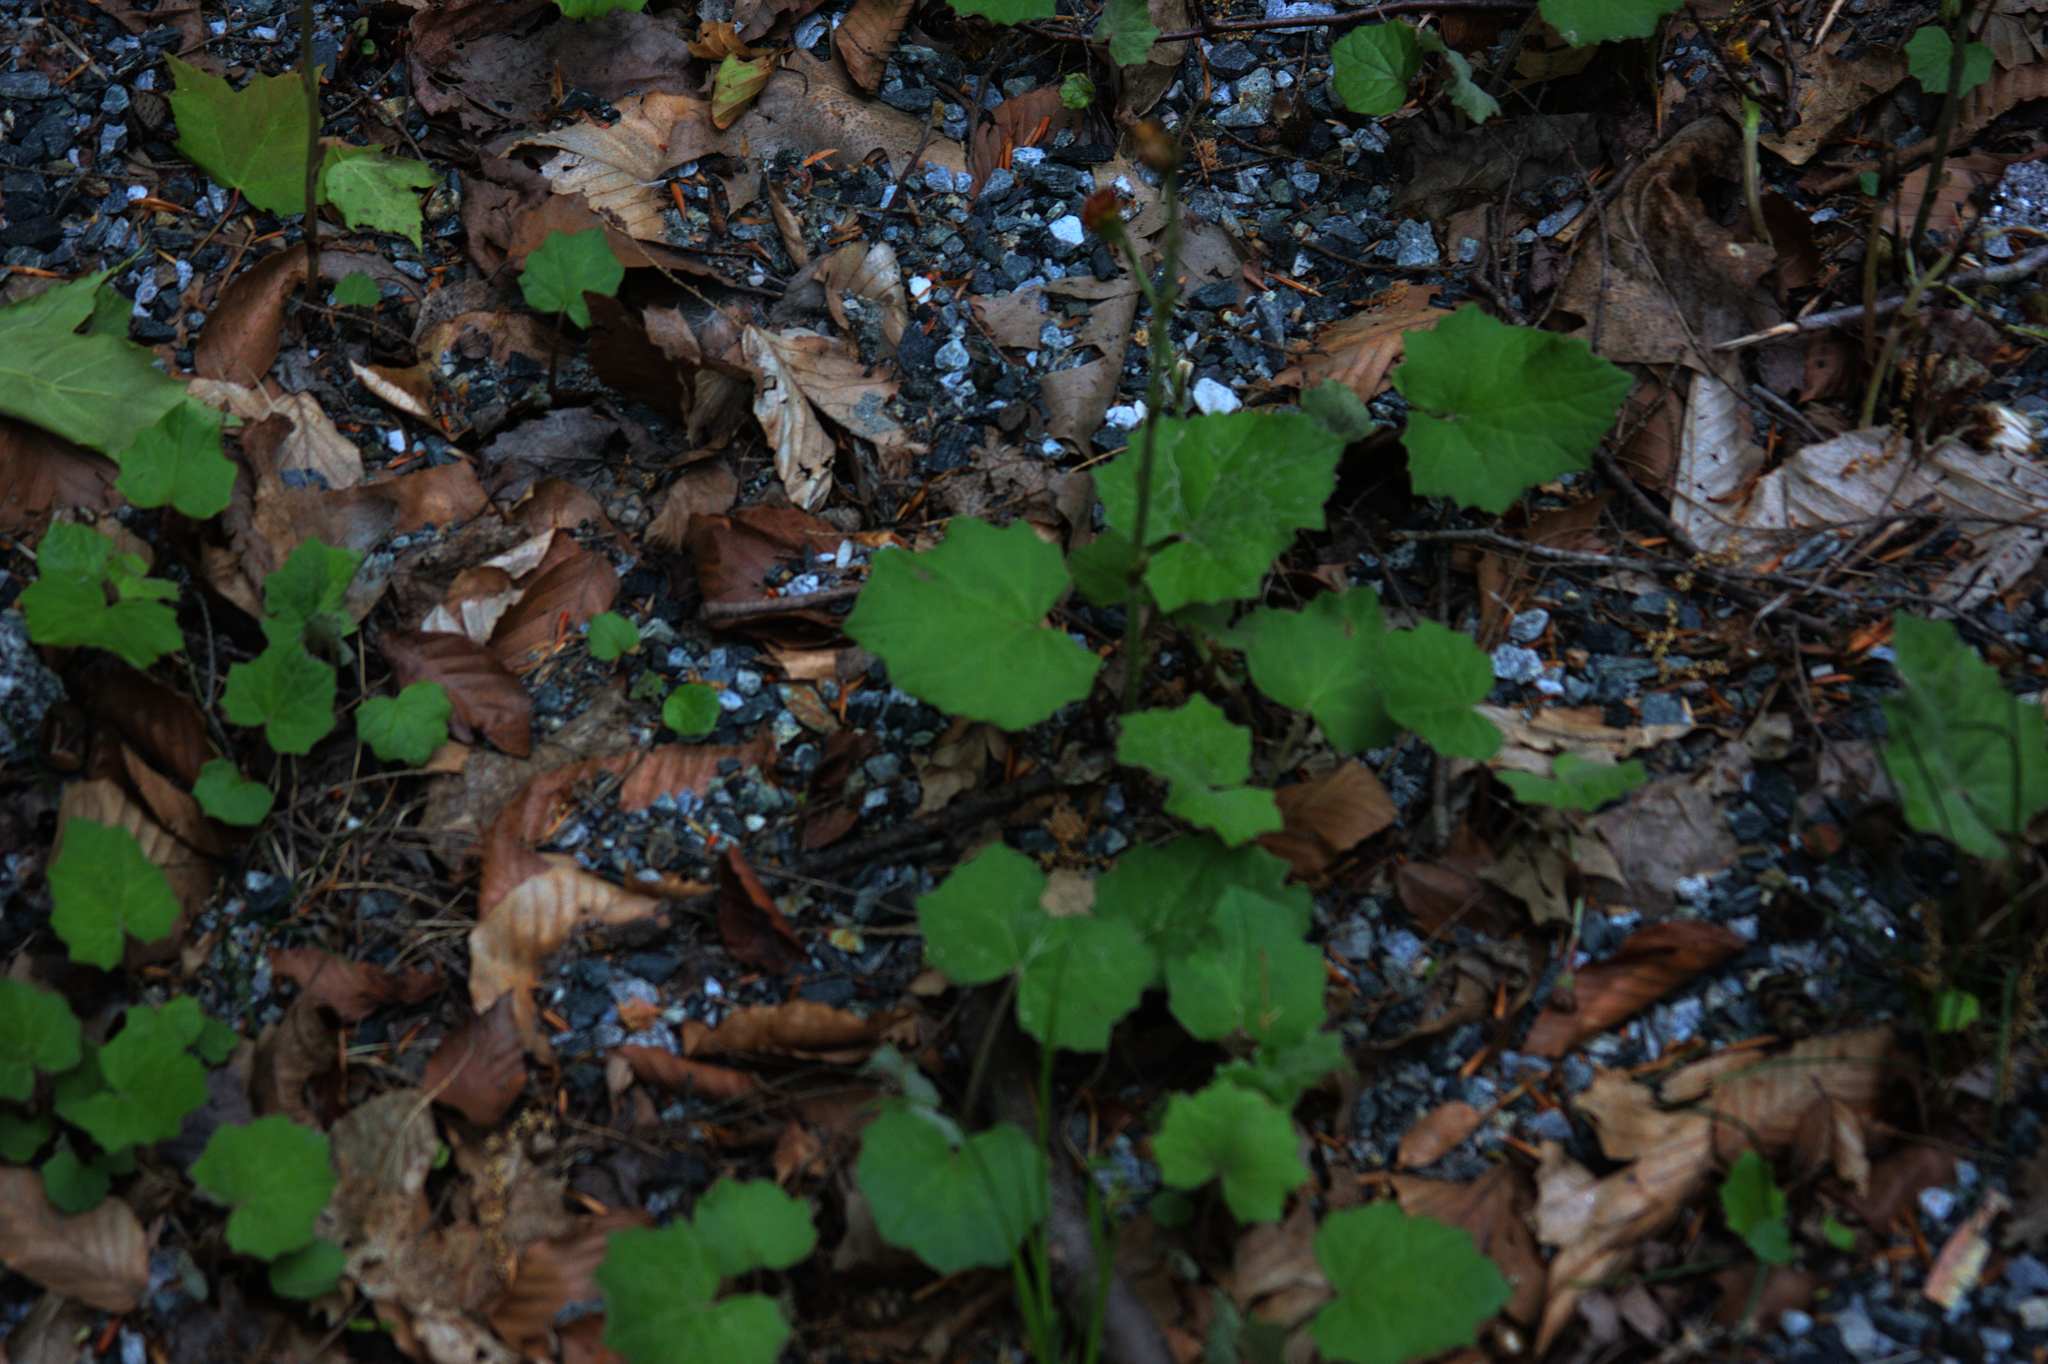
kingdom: Plantae
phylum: Tracheophyta
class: Magnoliopsida
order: Asterales
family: Asteraceae
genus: Tussilago
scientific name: Tussilago farfara
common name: Coltsfoot
